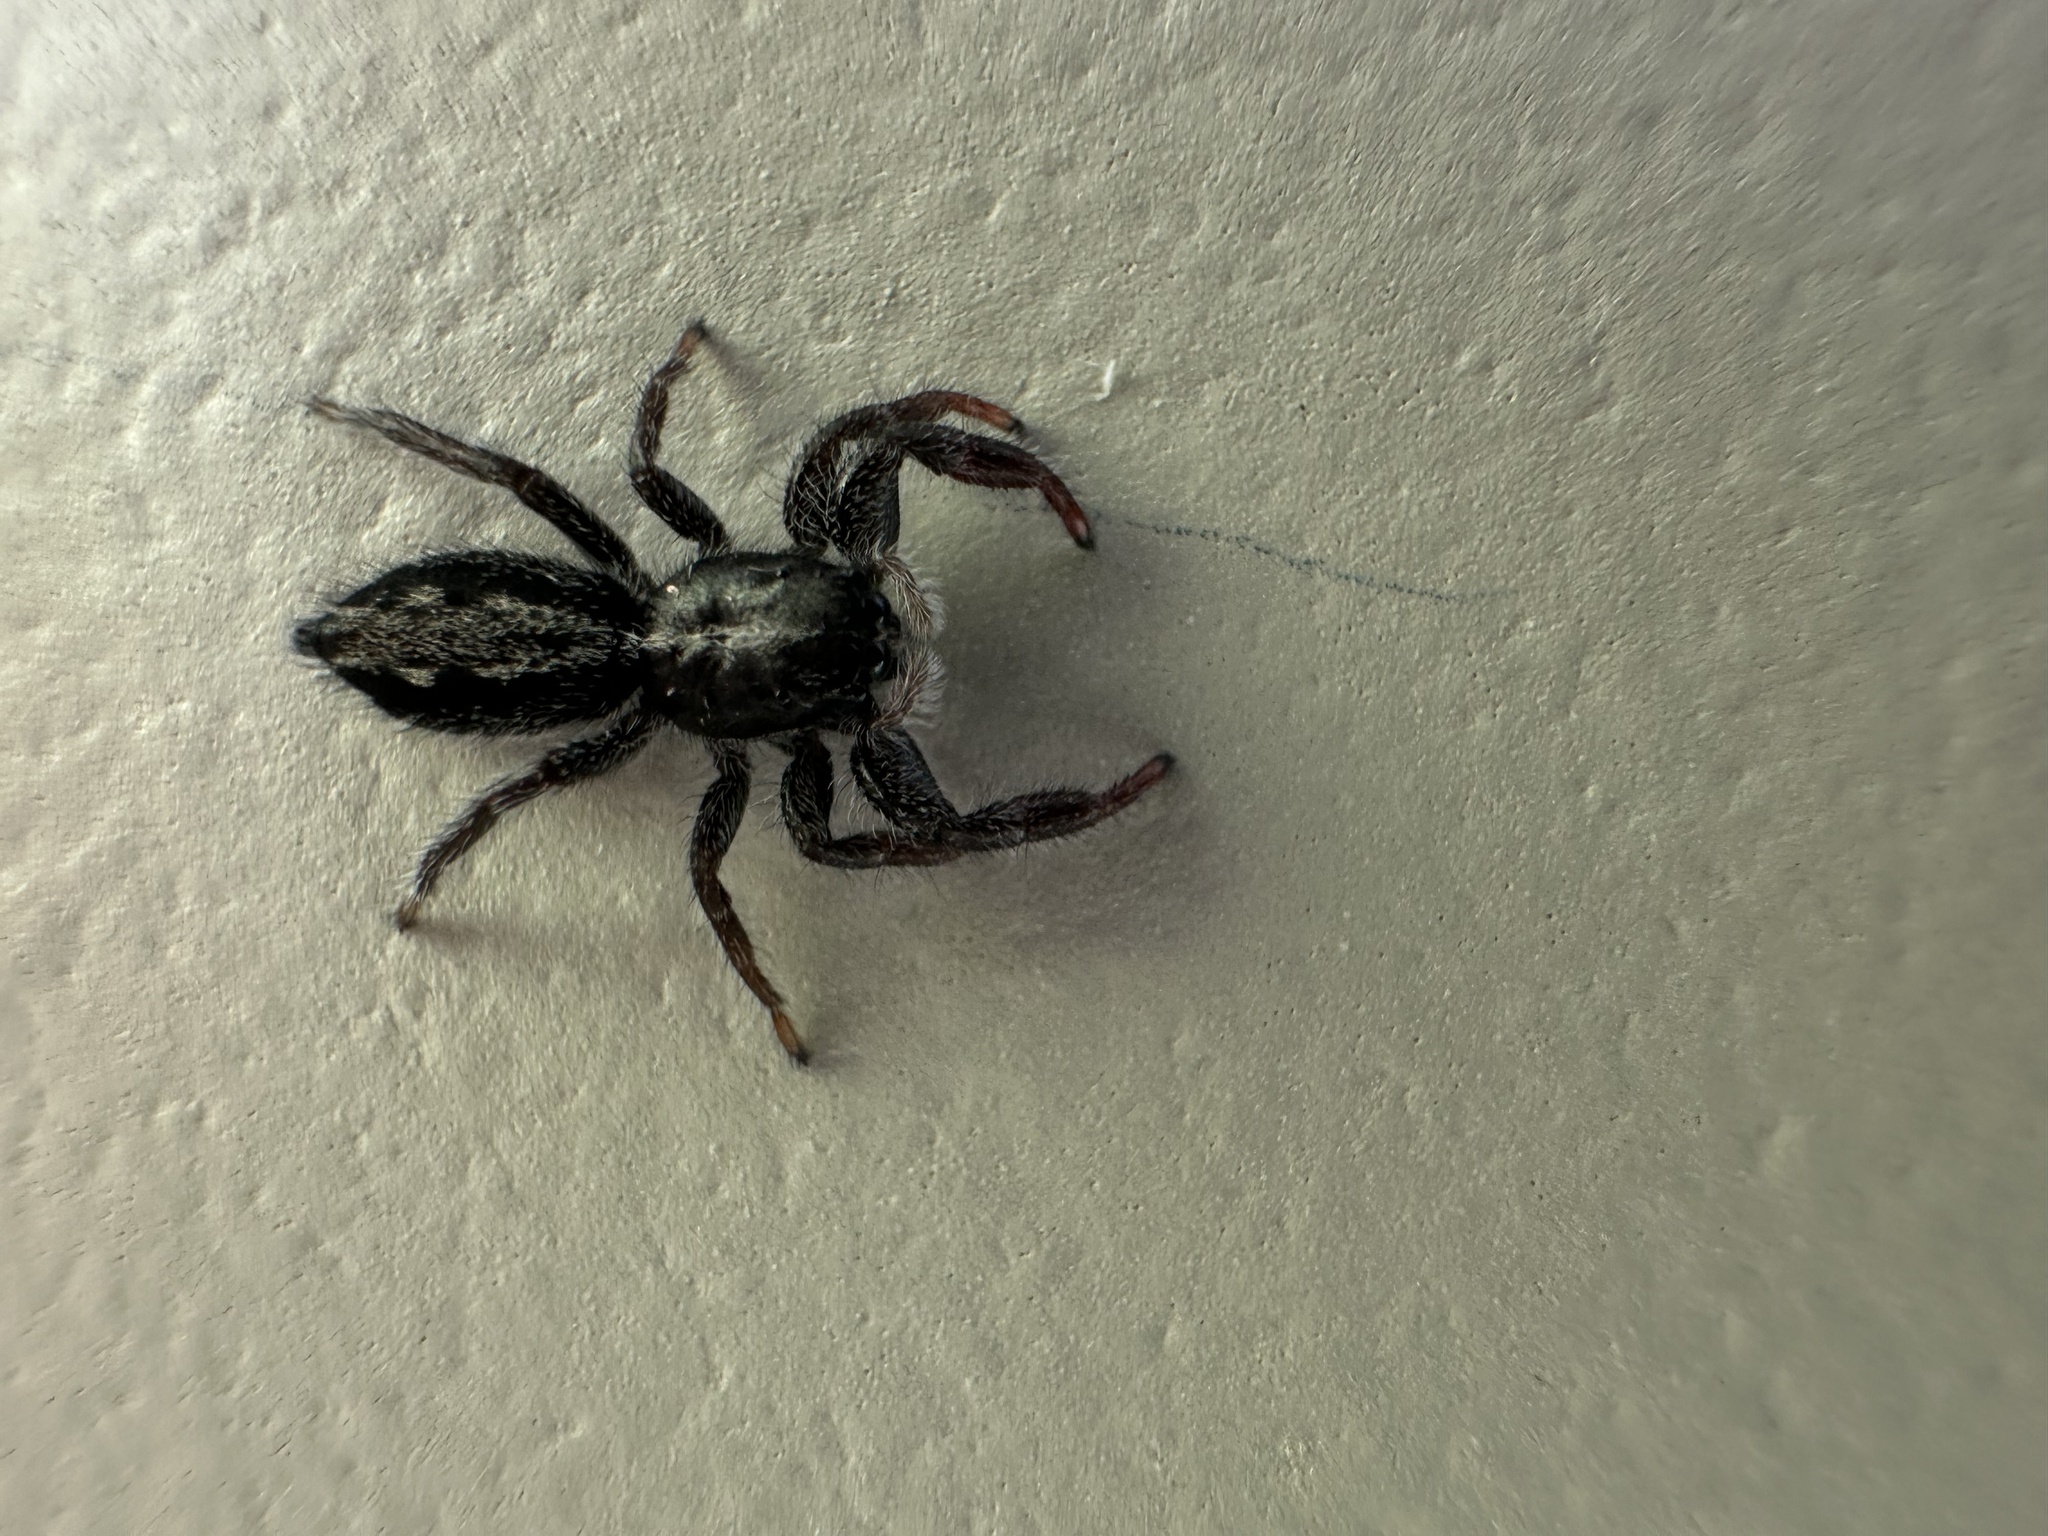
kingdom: Animalia
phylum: Arthropoda
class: Arachnida
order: Araneae
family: Salticidae
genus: Ocrisiona
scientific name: Ocrisiona leucocomis
